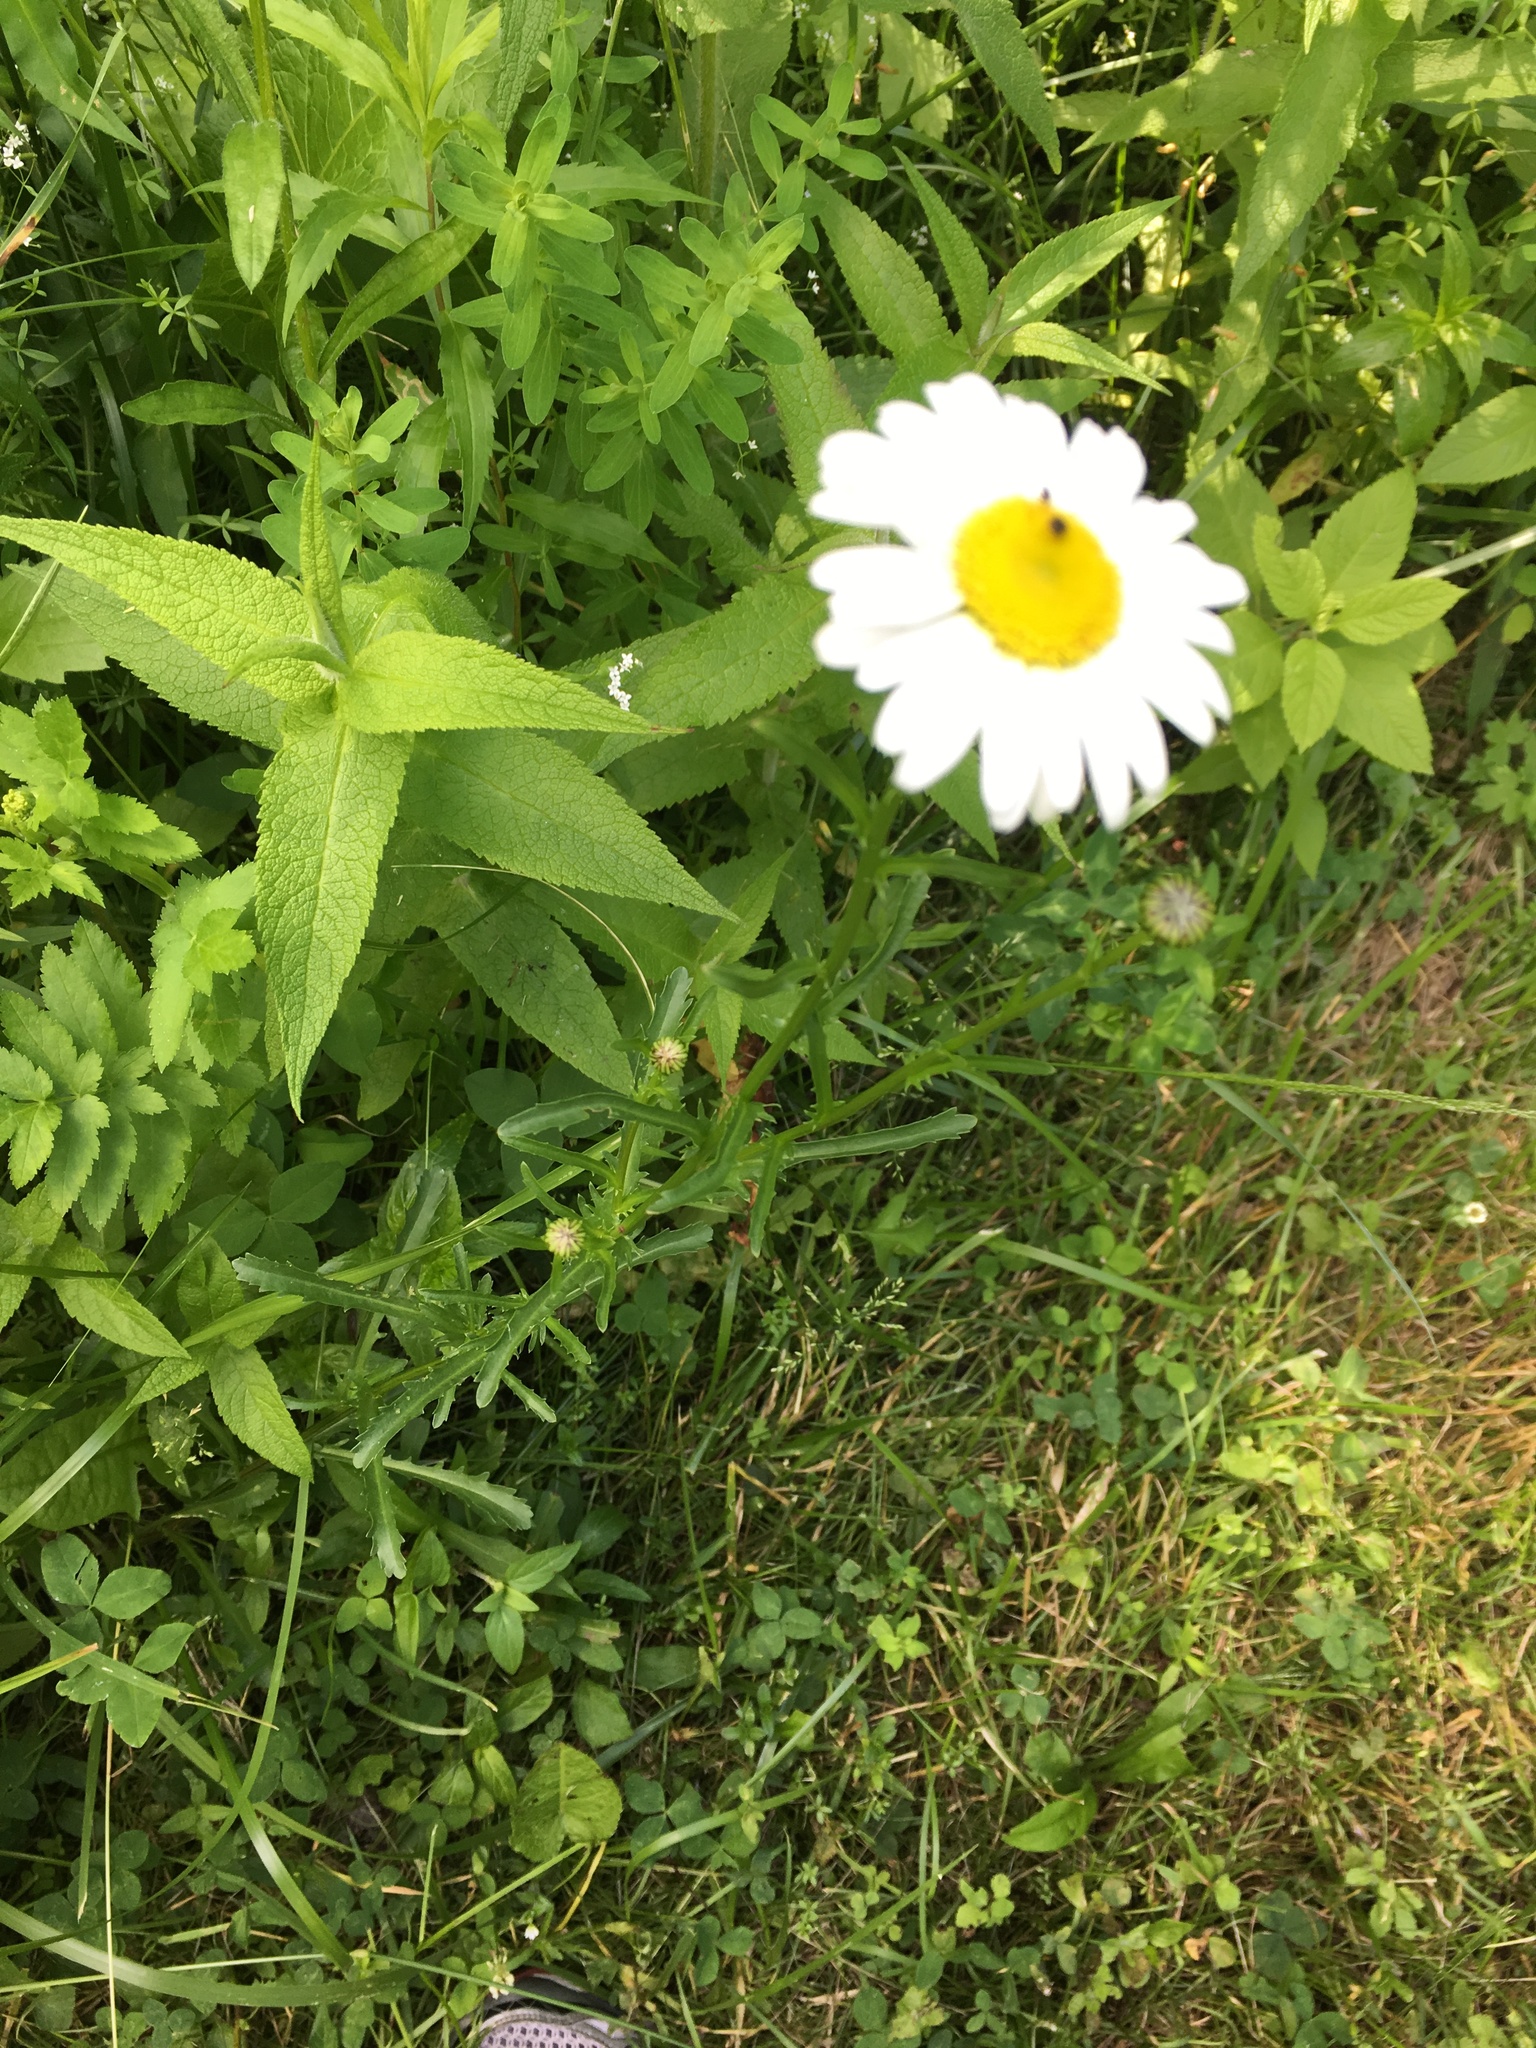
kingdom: Plantae
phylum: Tracheophyta
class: Magnoliopsida
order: Asterales
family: Asteraceae
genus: Leucanthemum
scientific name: Leucanthemum vulgare
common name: Oxeye daisy
